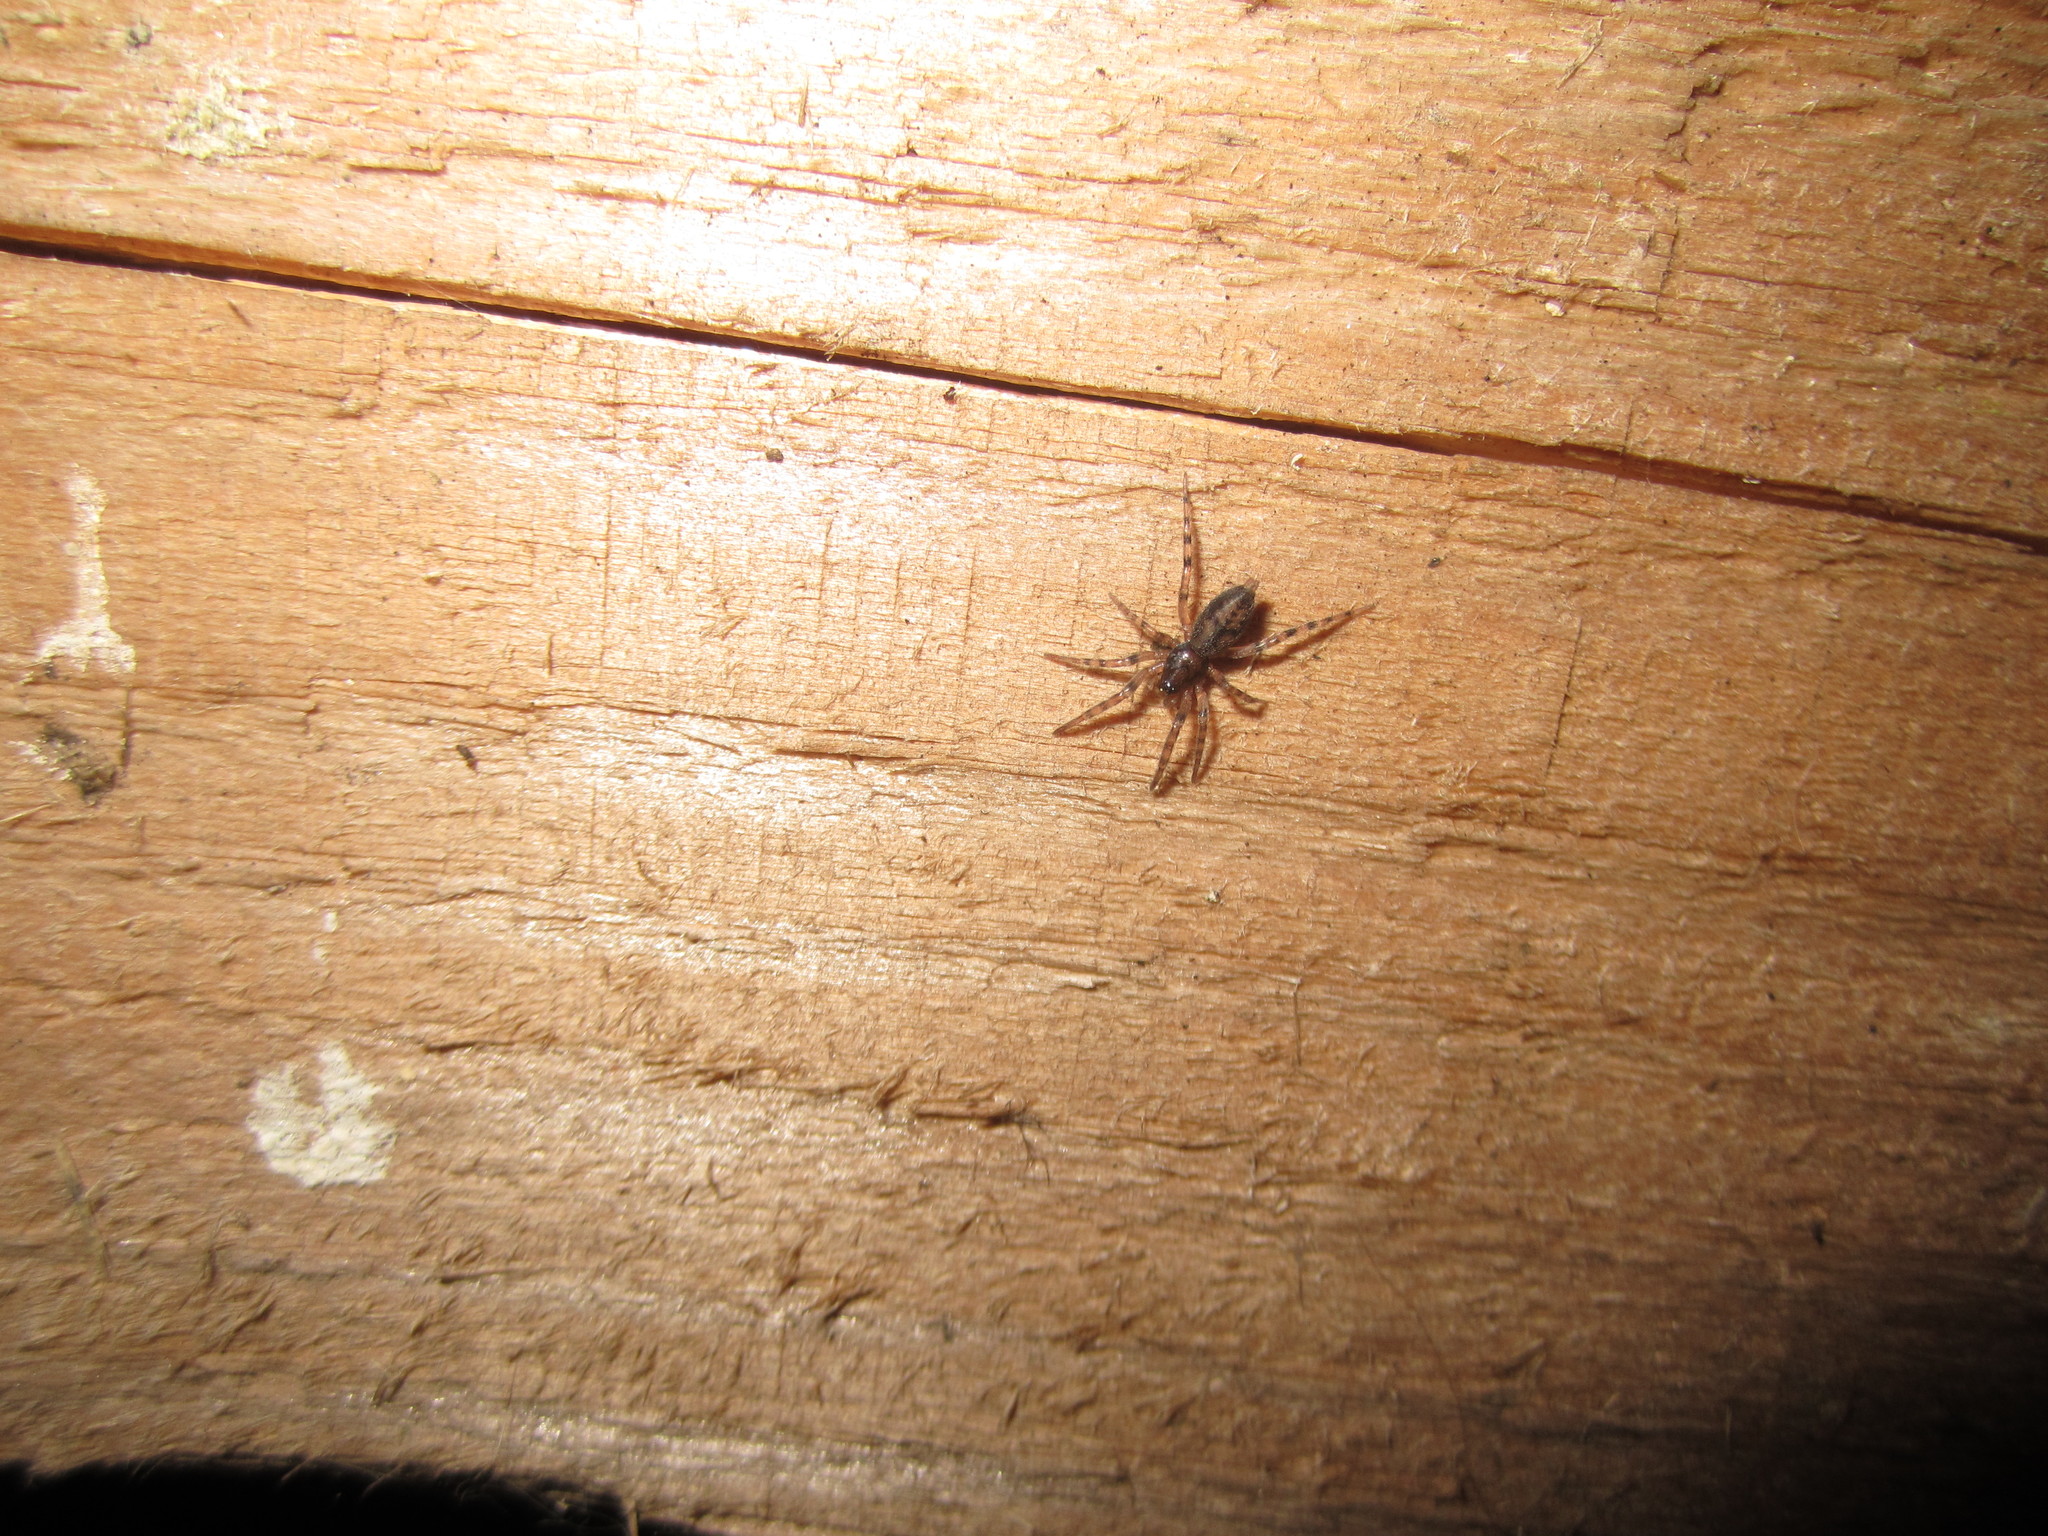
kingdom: Animalia
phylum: Arthropoda
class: Arachnida
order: Araneae
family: Gnaphosidae
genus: Intruda
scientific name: Intruda signata
